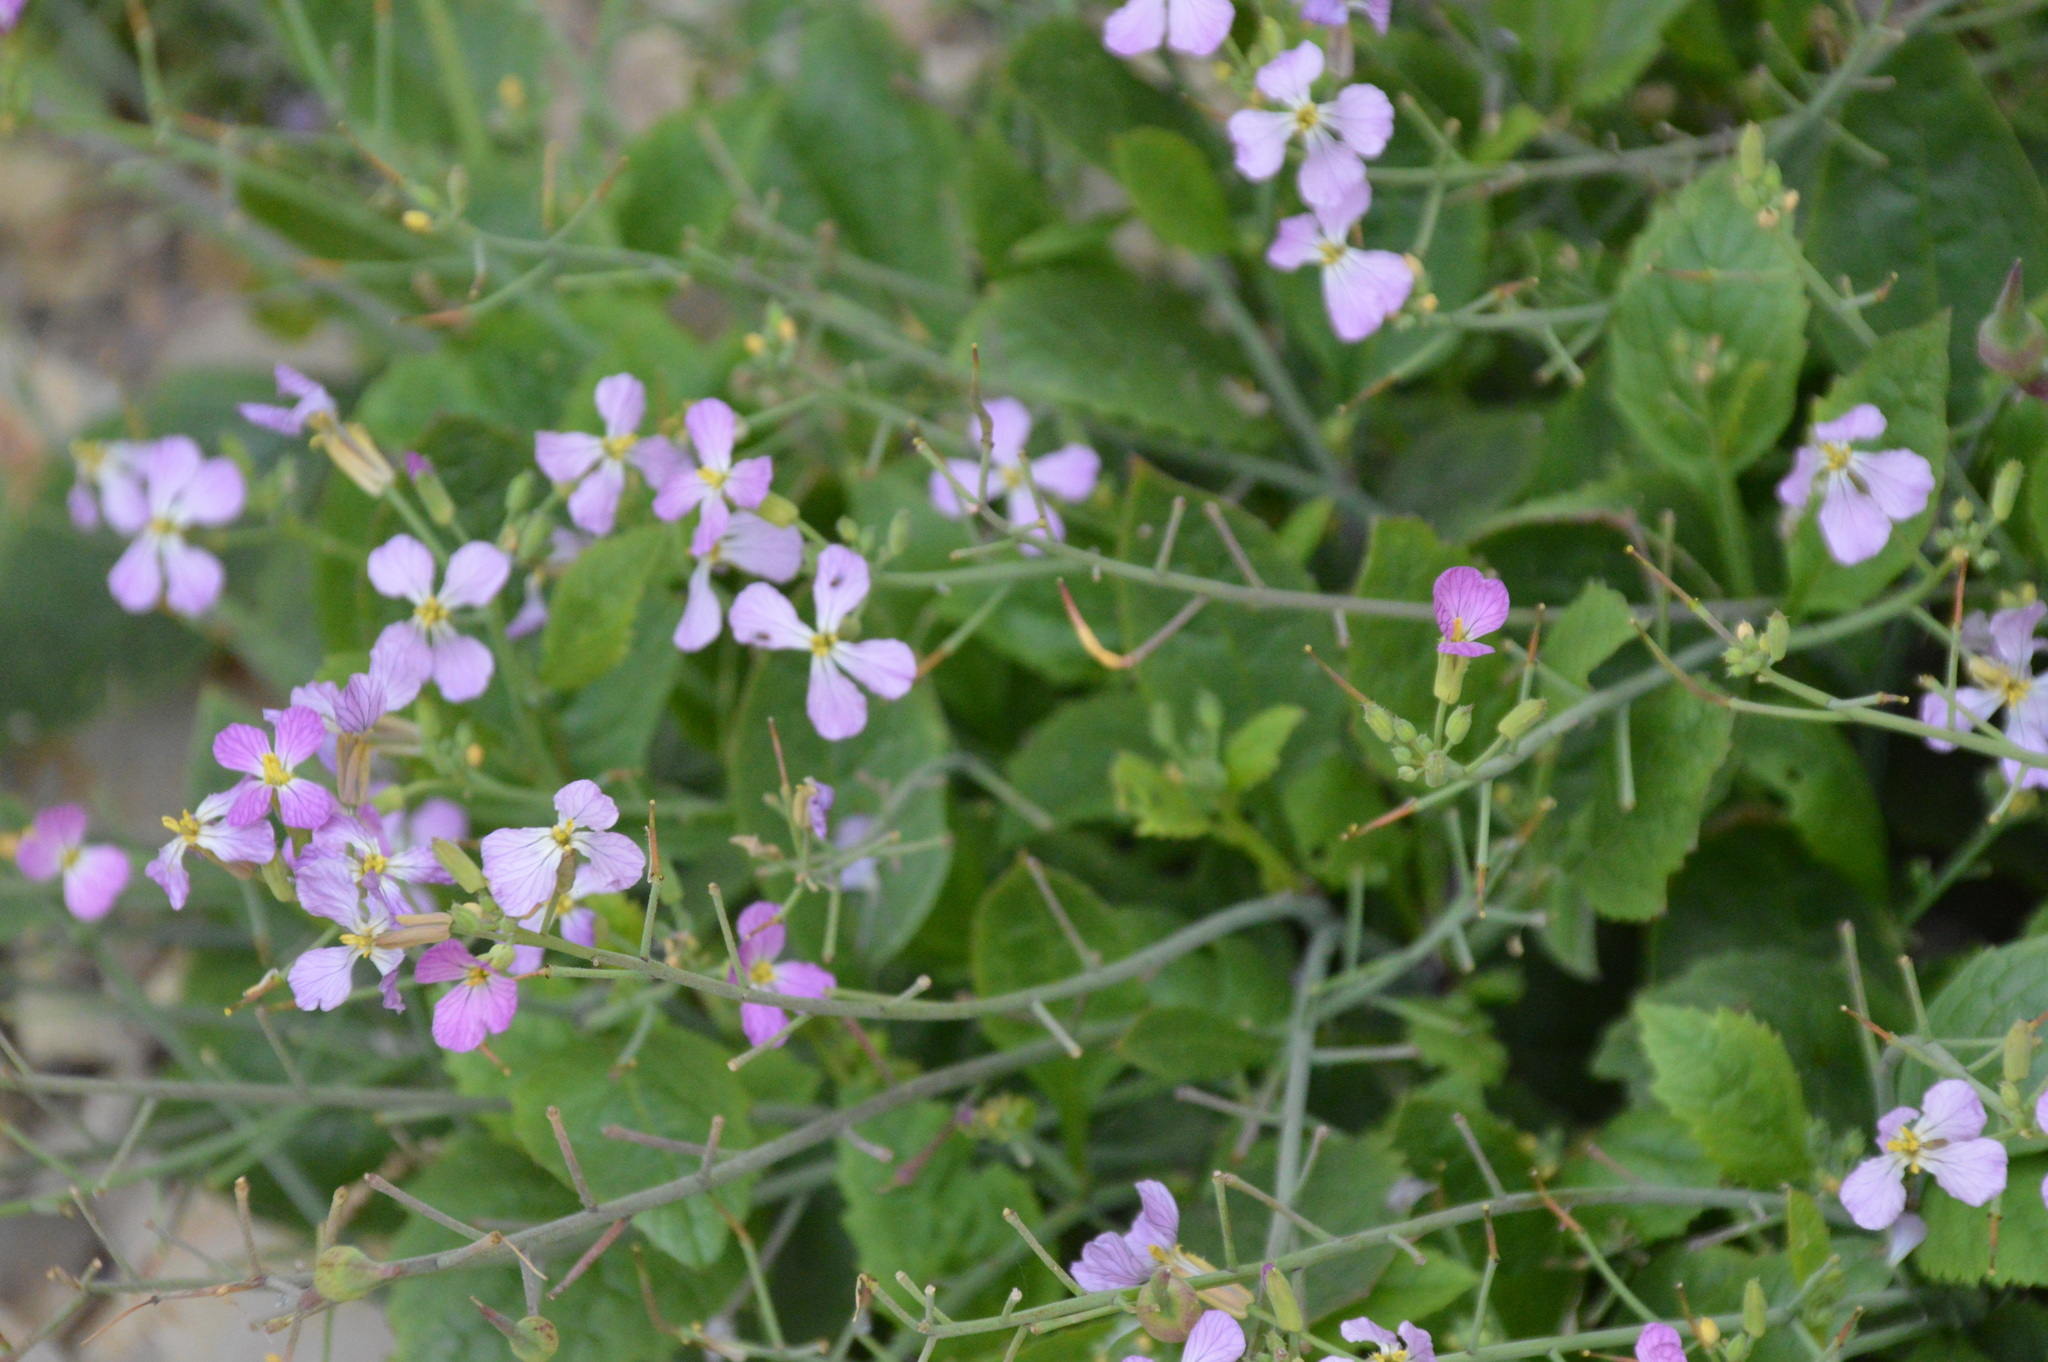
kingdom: Plantae
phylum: Tracheophyta
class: Magnoliopsida
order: Brassicales
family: Brassicaceae
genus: Raphanus
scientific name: Raphanus sativus
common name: Cultivated radish
